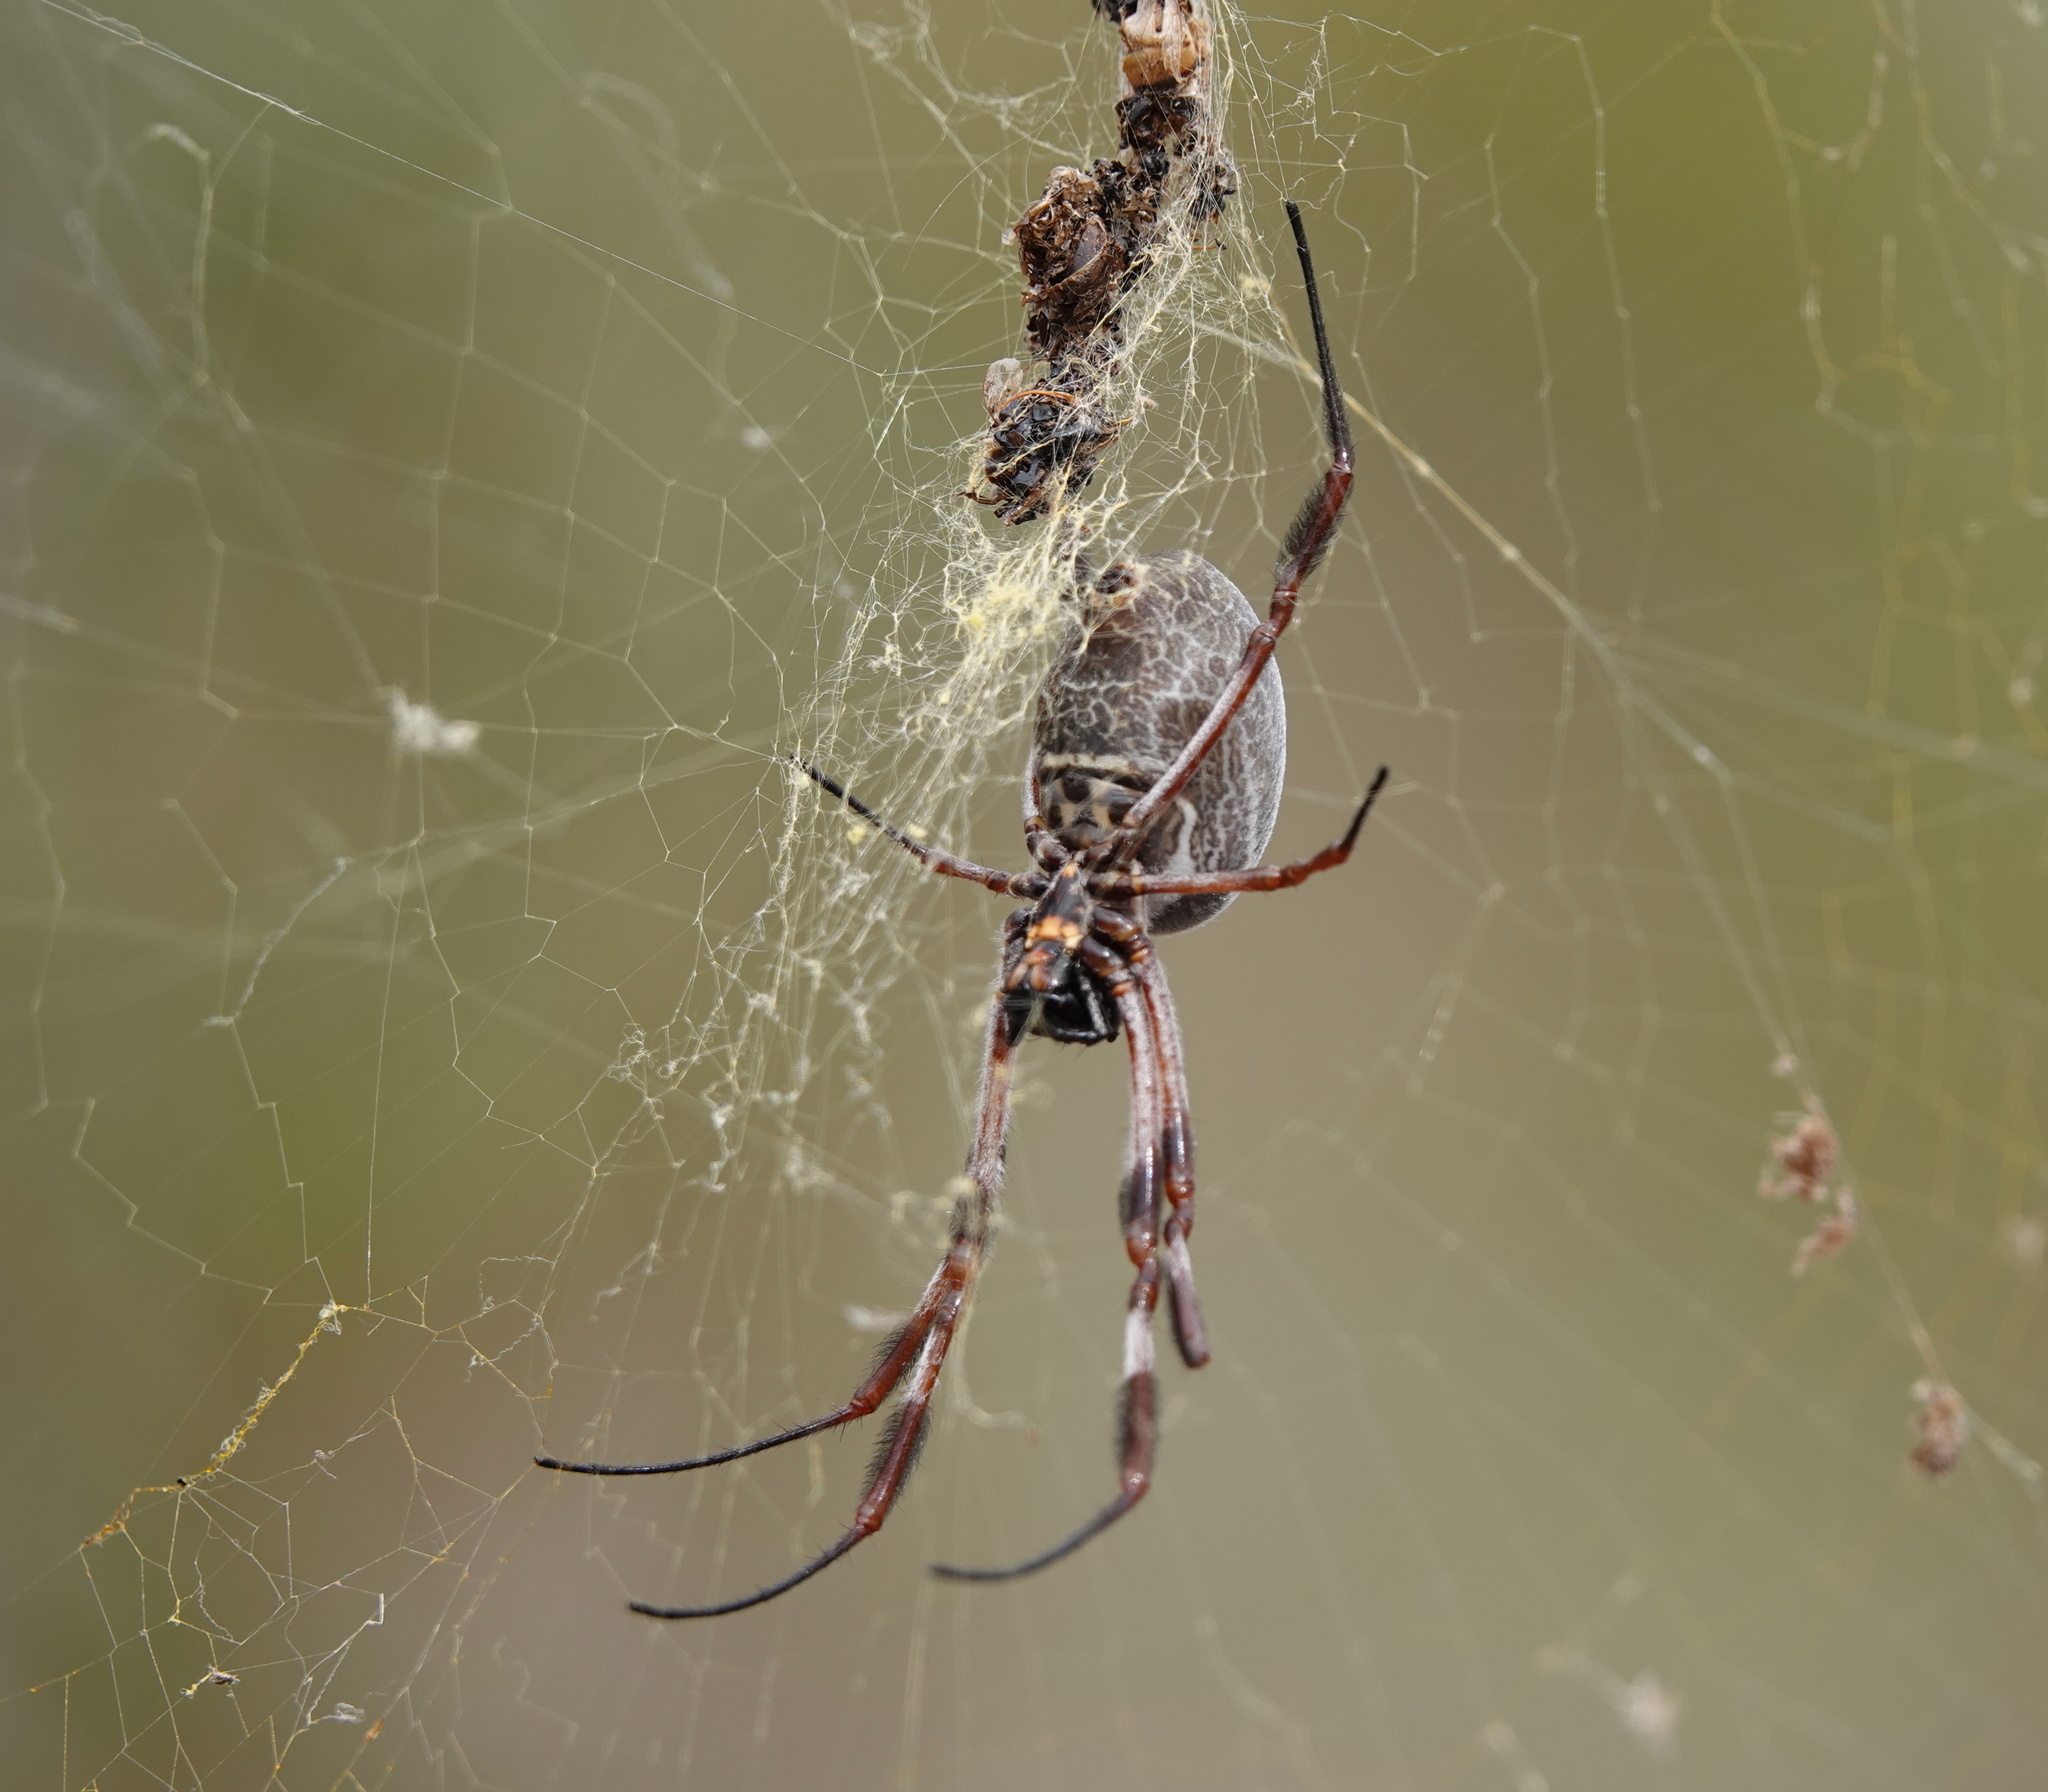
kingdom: Animalia
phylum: Arthropoda
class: Arachnida
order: Araneae
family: Araneidae
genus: Trichonephila
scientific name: Trichonephila edulis
